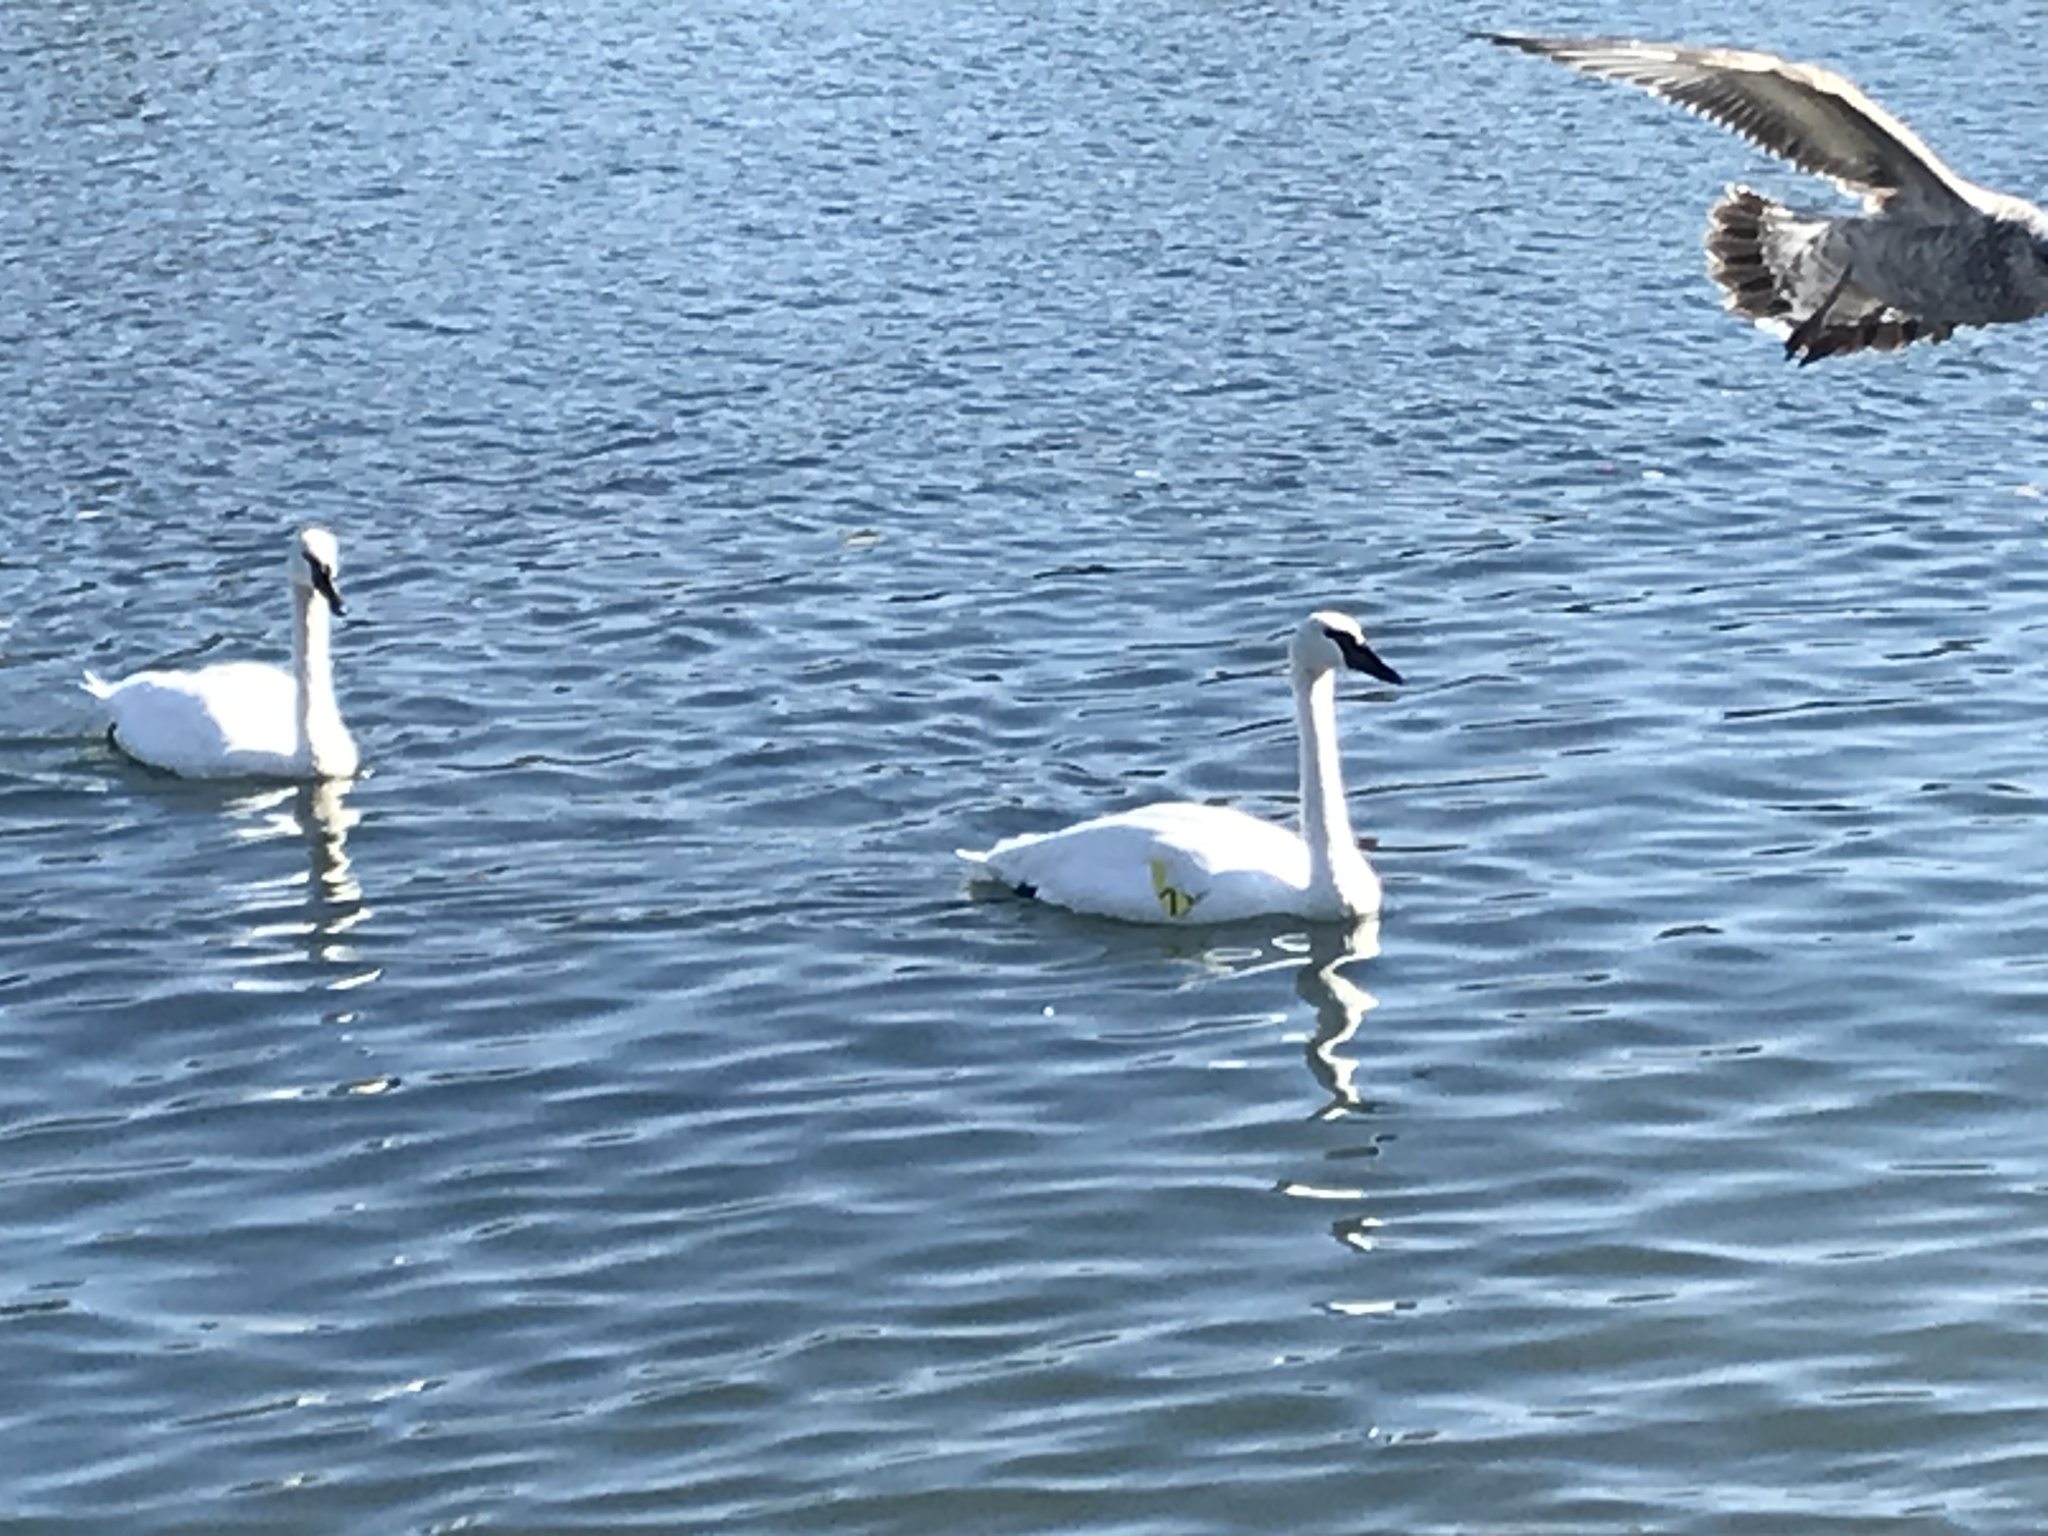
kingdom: Animalia
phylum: Chordata
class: Aves
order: Anseriformes
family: Anatidae
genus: Cygnus
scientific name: Cygnus buccinator
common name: Trumpeter swan
